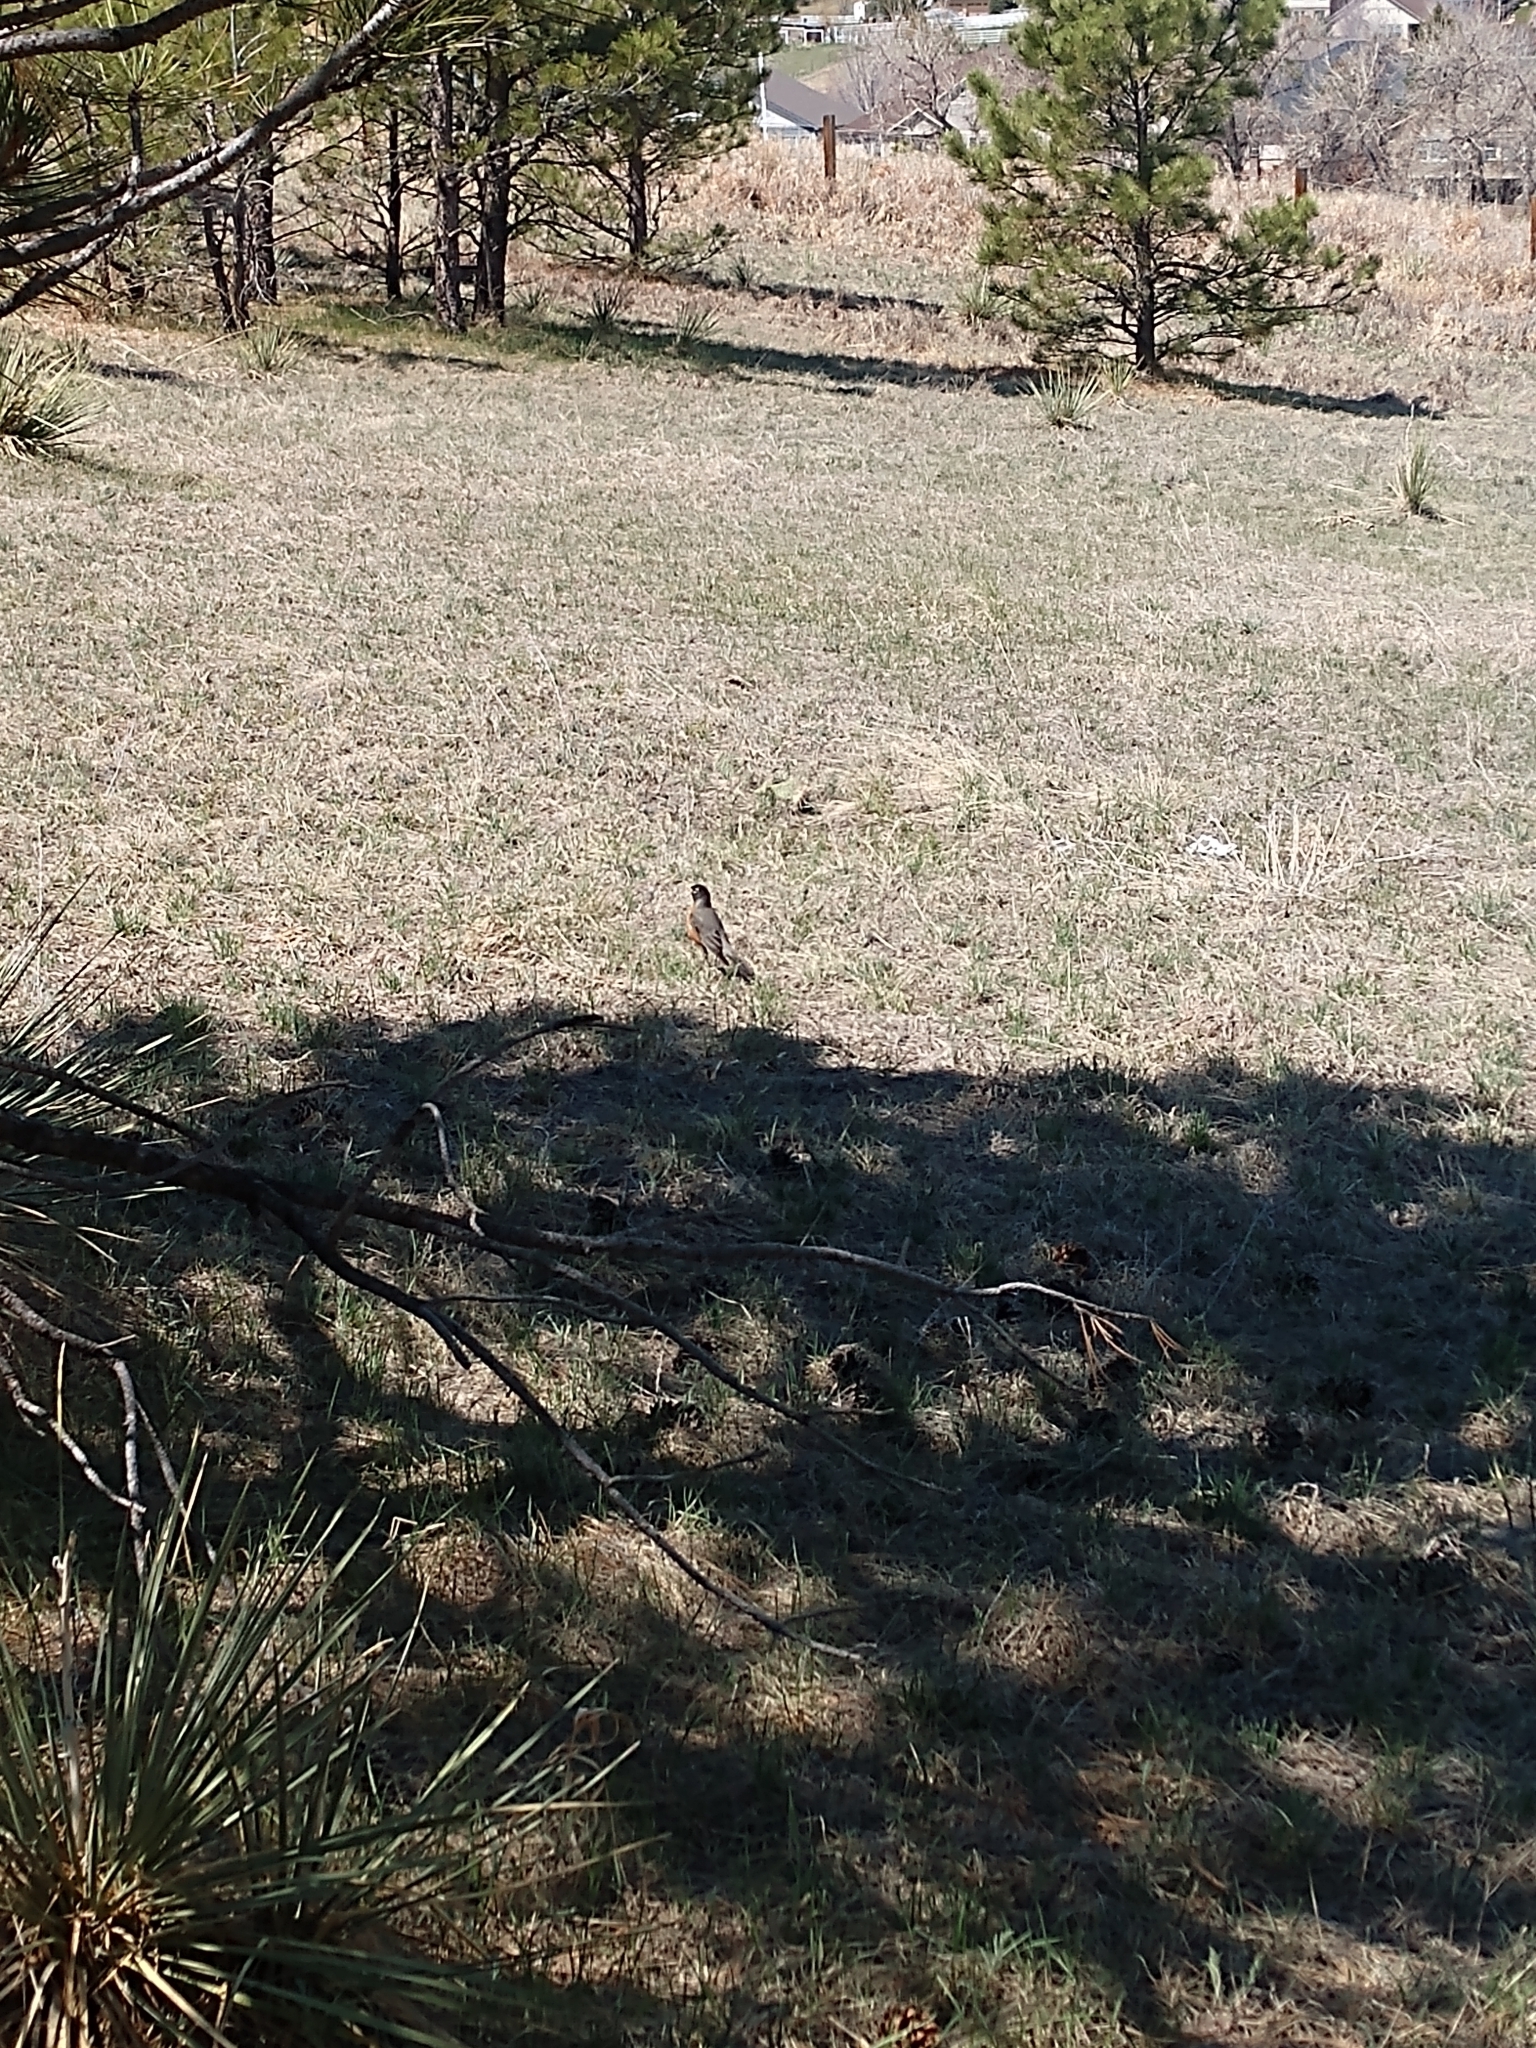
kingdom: Animalia
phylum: Chordata
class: Aves
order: Passeriformes
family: Turdidae
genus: Turdus
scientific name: Turdus migratorius
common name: American robin
